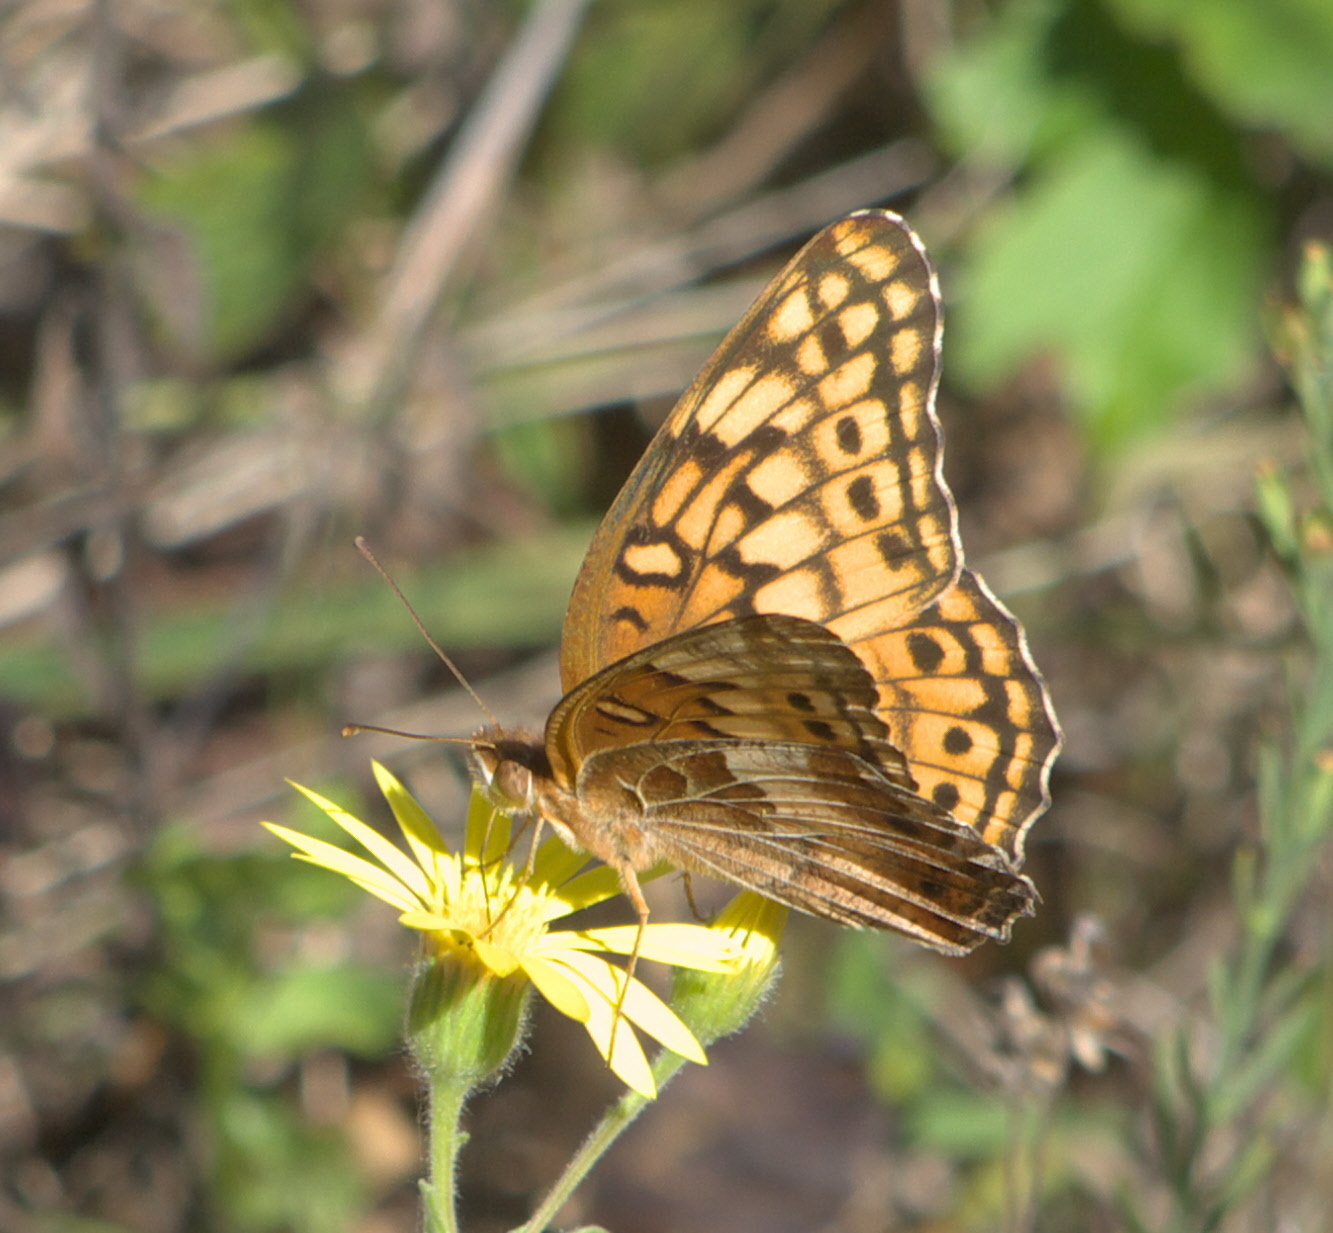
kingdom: Animalia
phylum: Arthropoda
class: Insecta
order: Lepidoptera
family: Nymphalidae
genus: Euptoieta
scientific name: Euptoieta claudia
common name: Variegated fritillary
